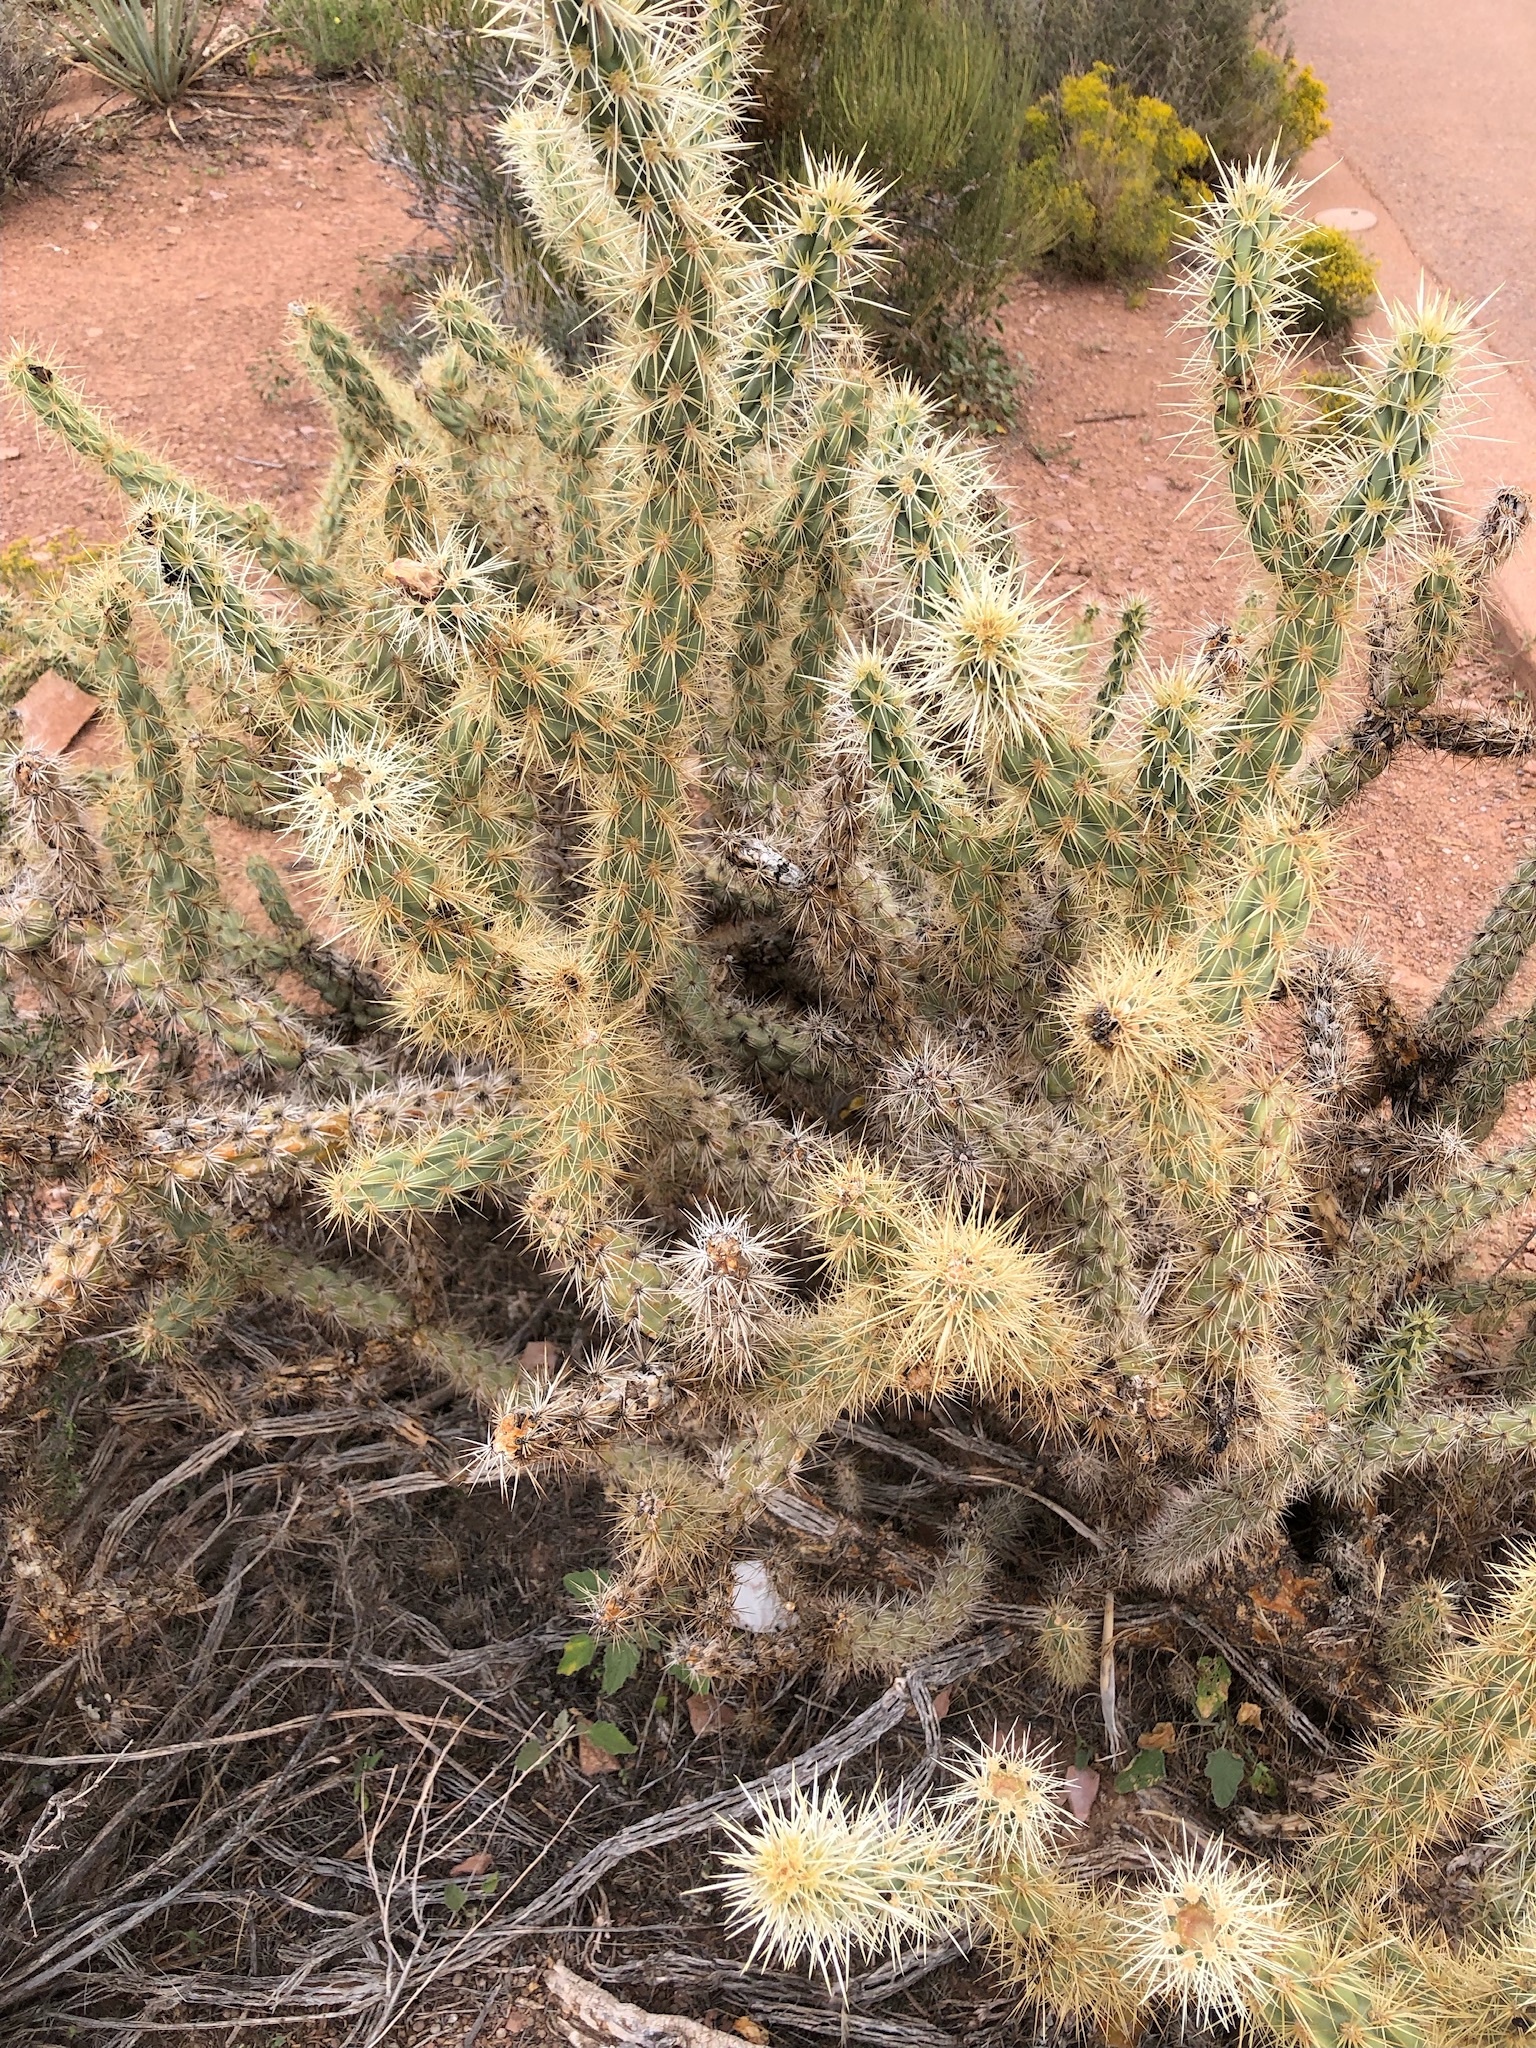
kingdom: Plantae
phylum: Tracheophyta
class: Magnoliopsida
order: Caryophyllales
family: Cactaceae
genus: Cylindropuntia
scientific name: Cylindropuntia acanthocarpa
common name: Buckhorn cholla
